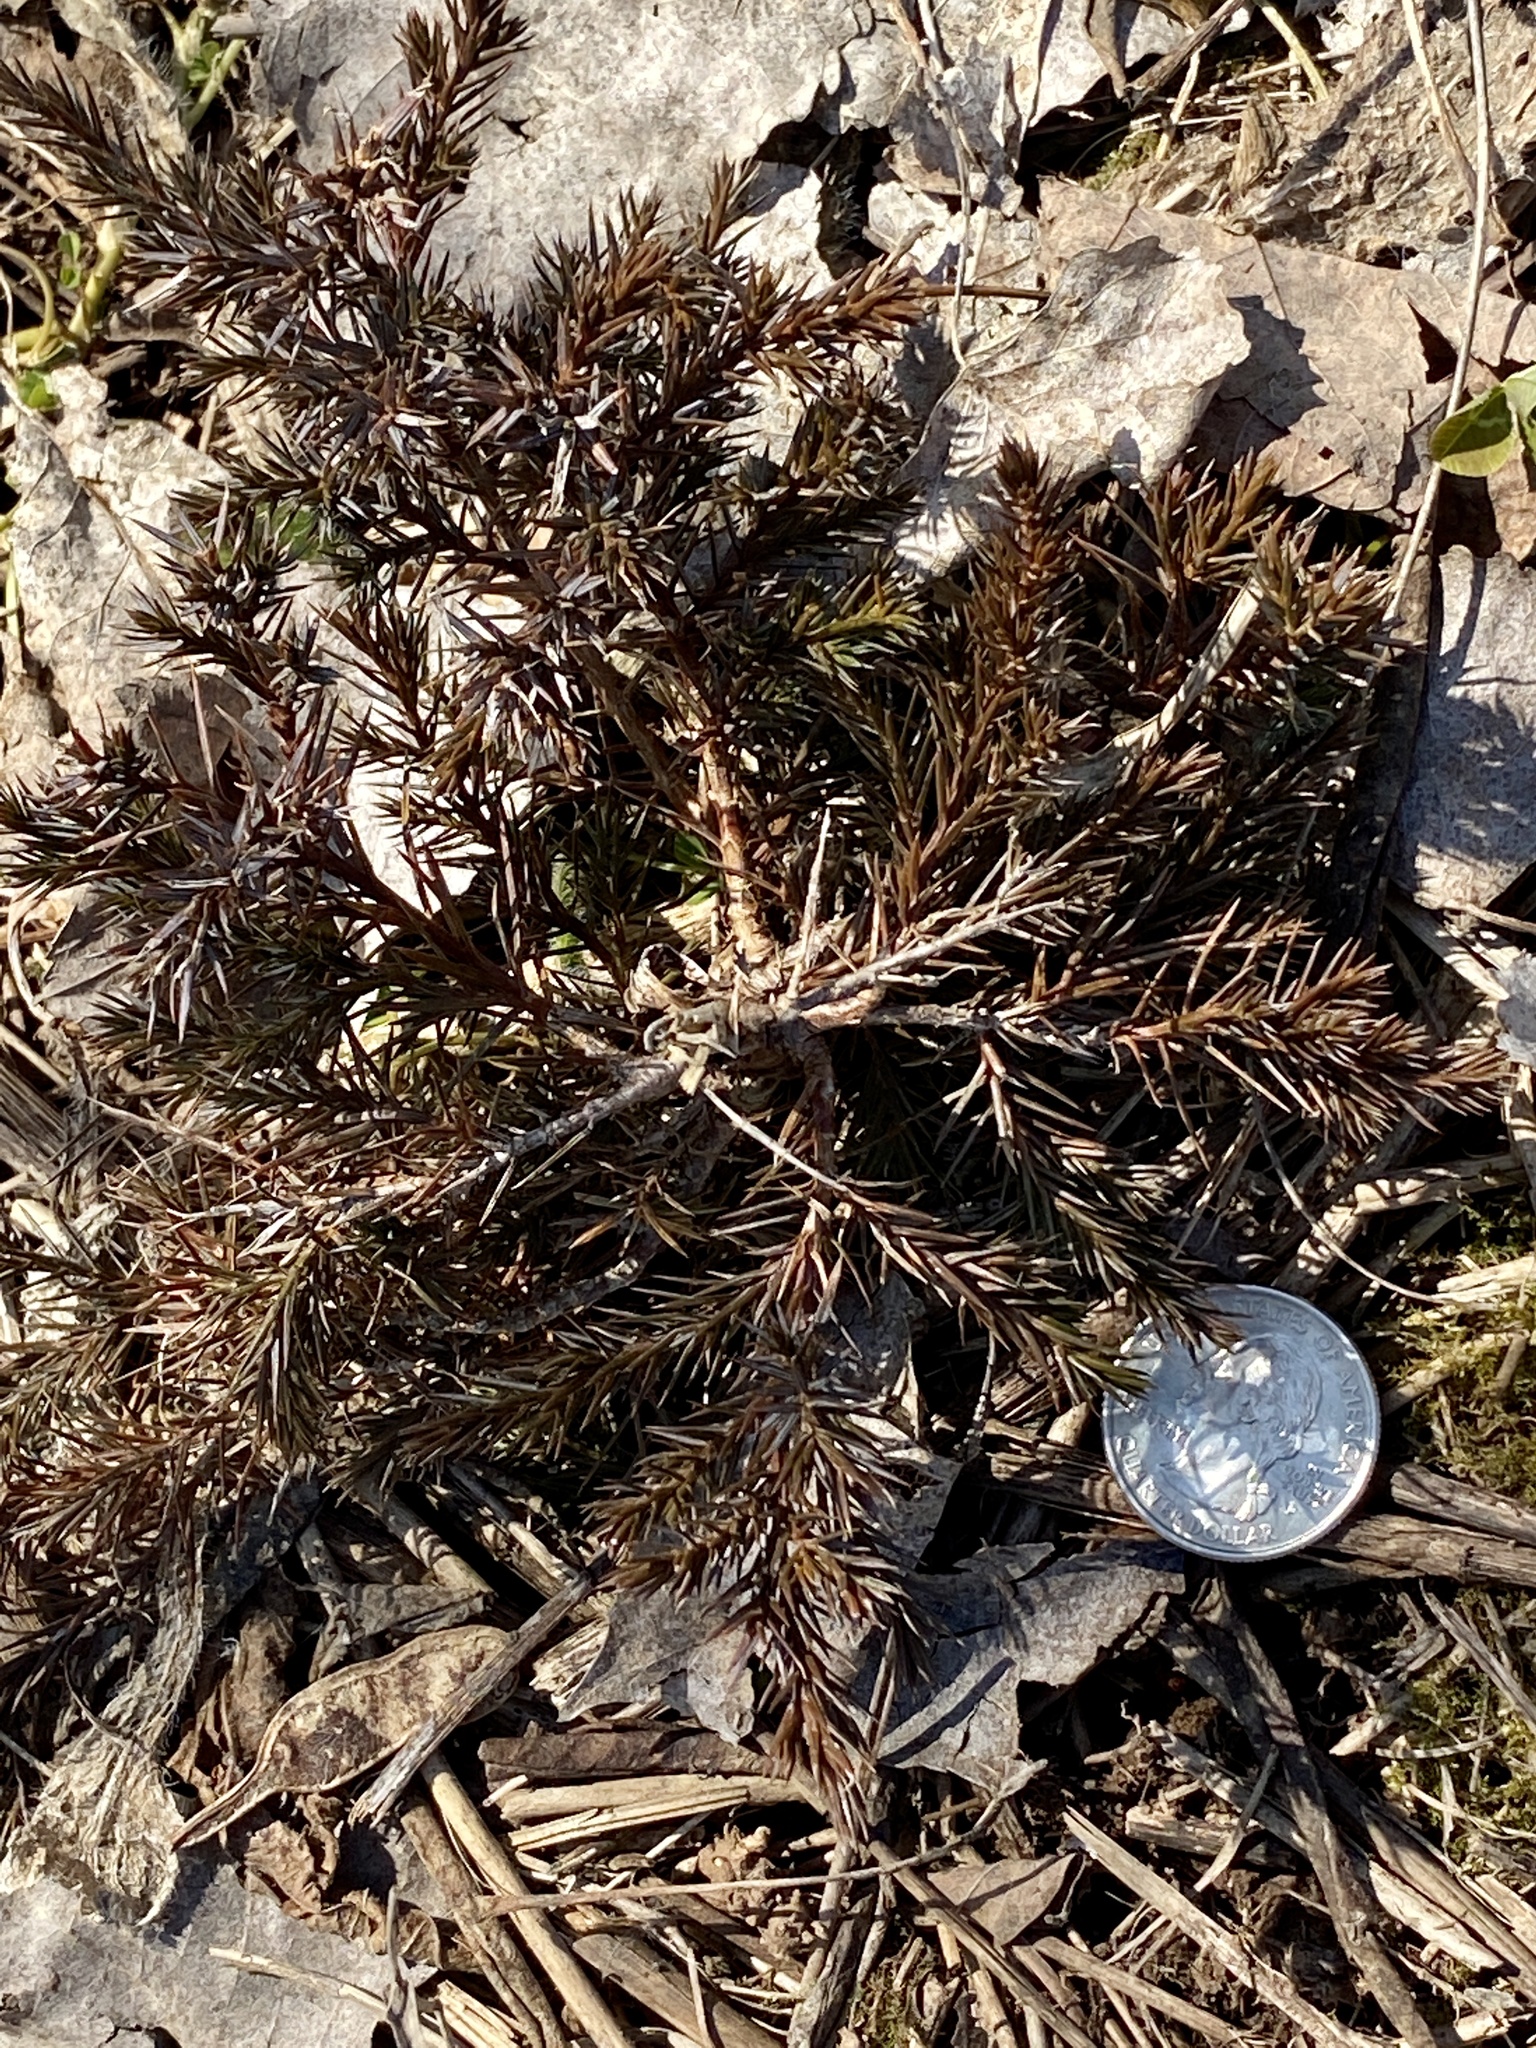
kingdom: Plantae
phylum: Tracheophyta
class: Pinopsida
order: Pinales
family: Cupressaceae
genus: Juniperus
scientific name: Juniperus virginiana
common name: Red juniper
